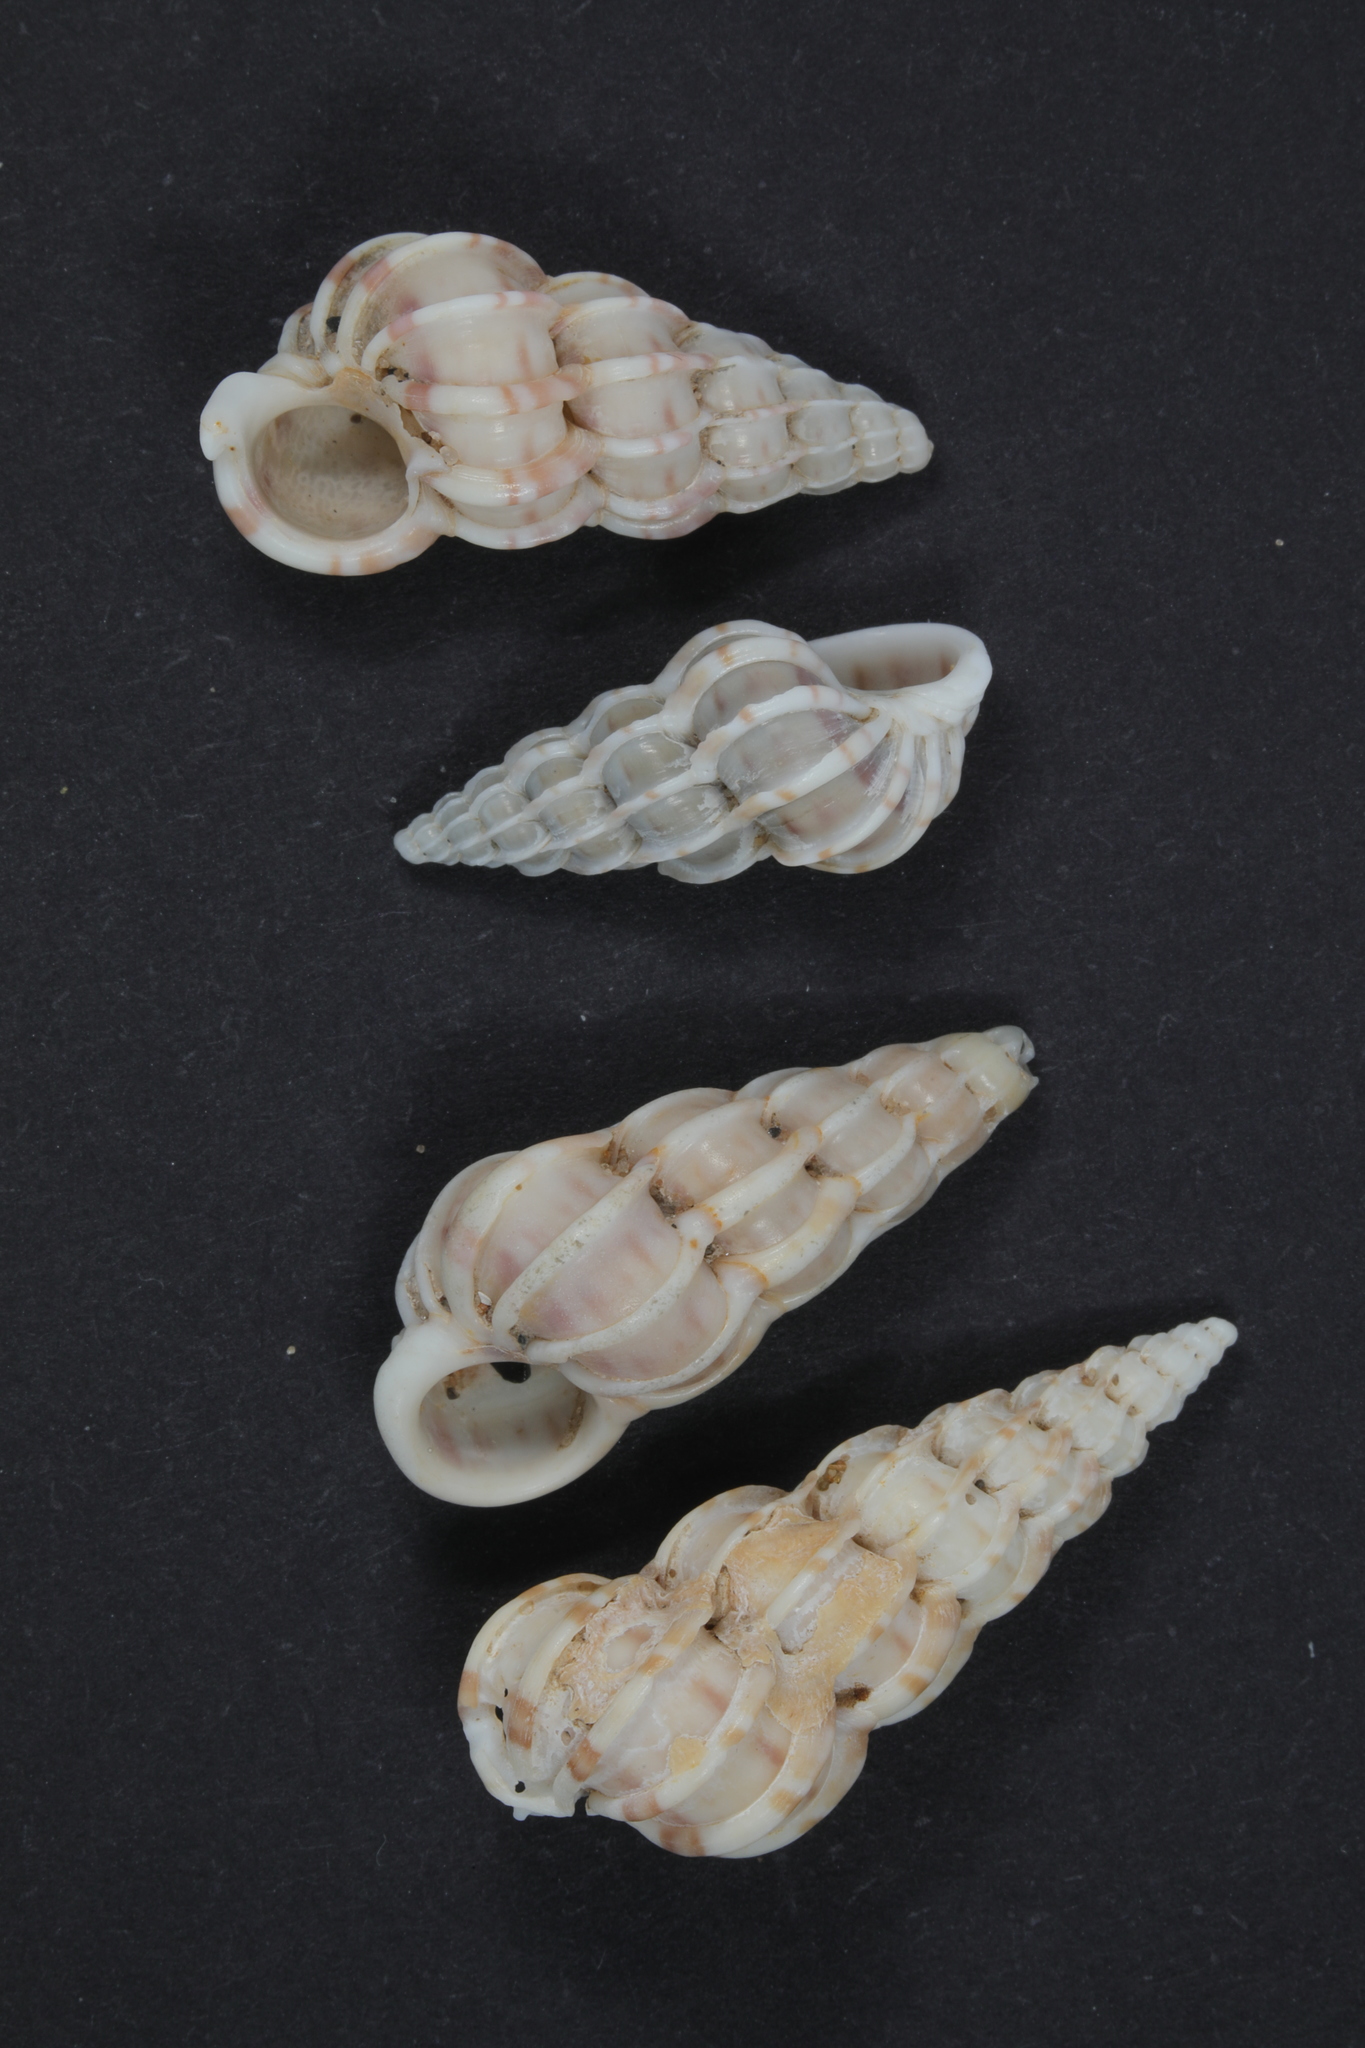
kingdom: Animalia
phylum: Mollusca
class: Gastropoda
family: Epitoniidae
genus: Epitonium
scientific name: Epitonium clathrus
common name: Common wentletrap
